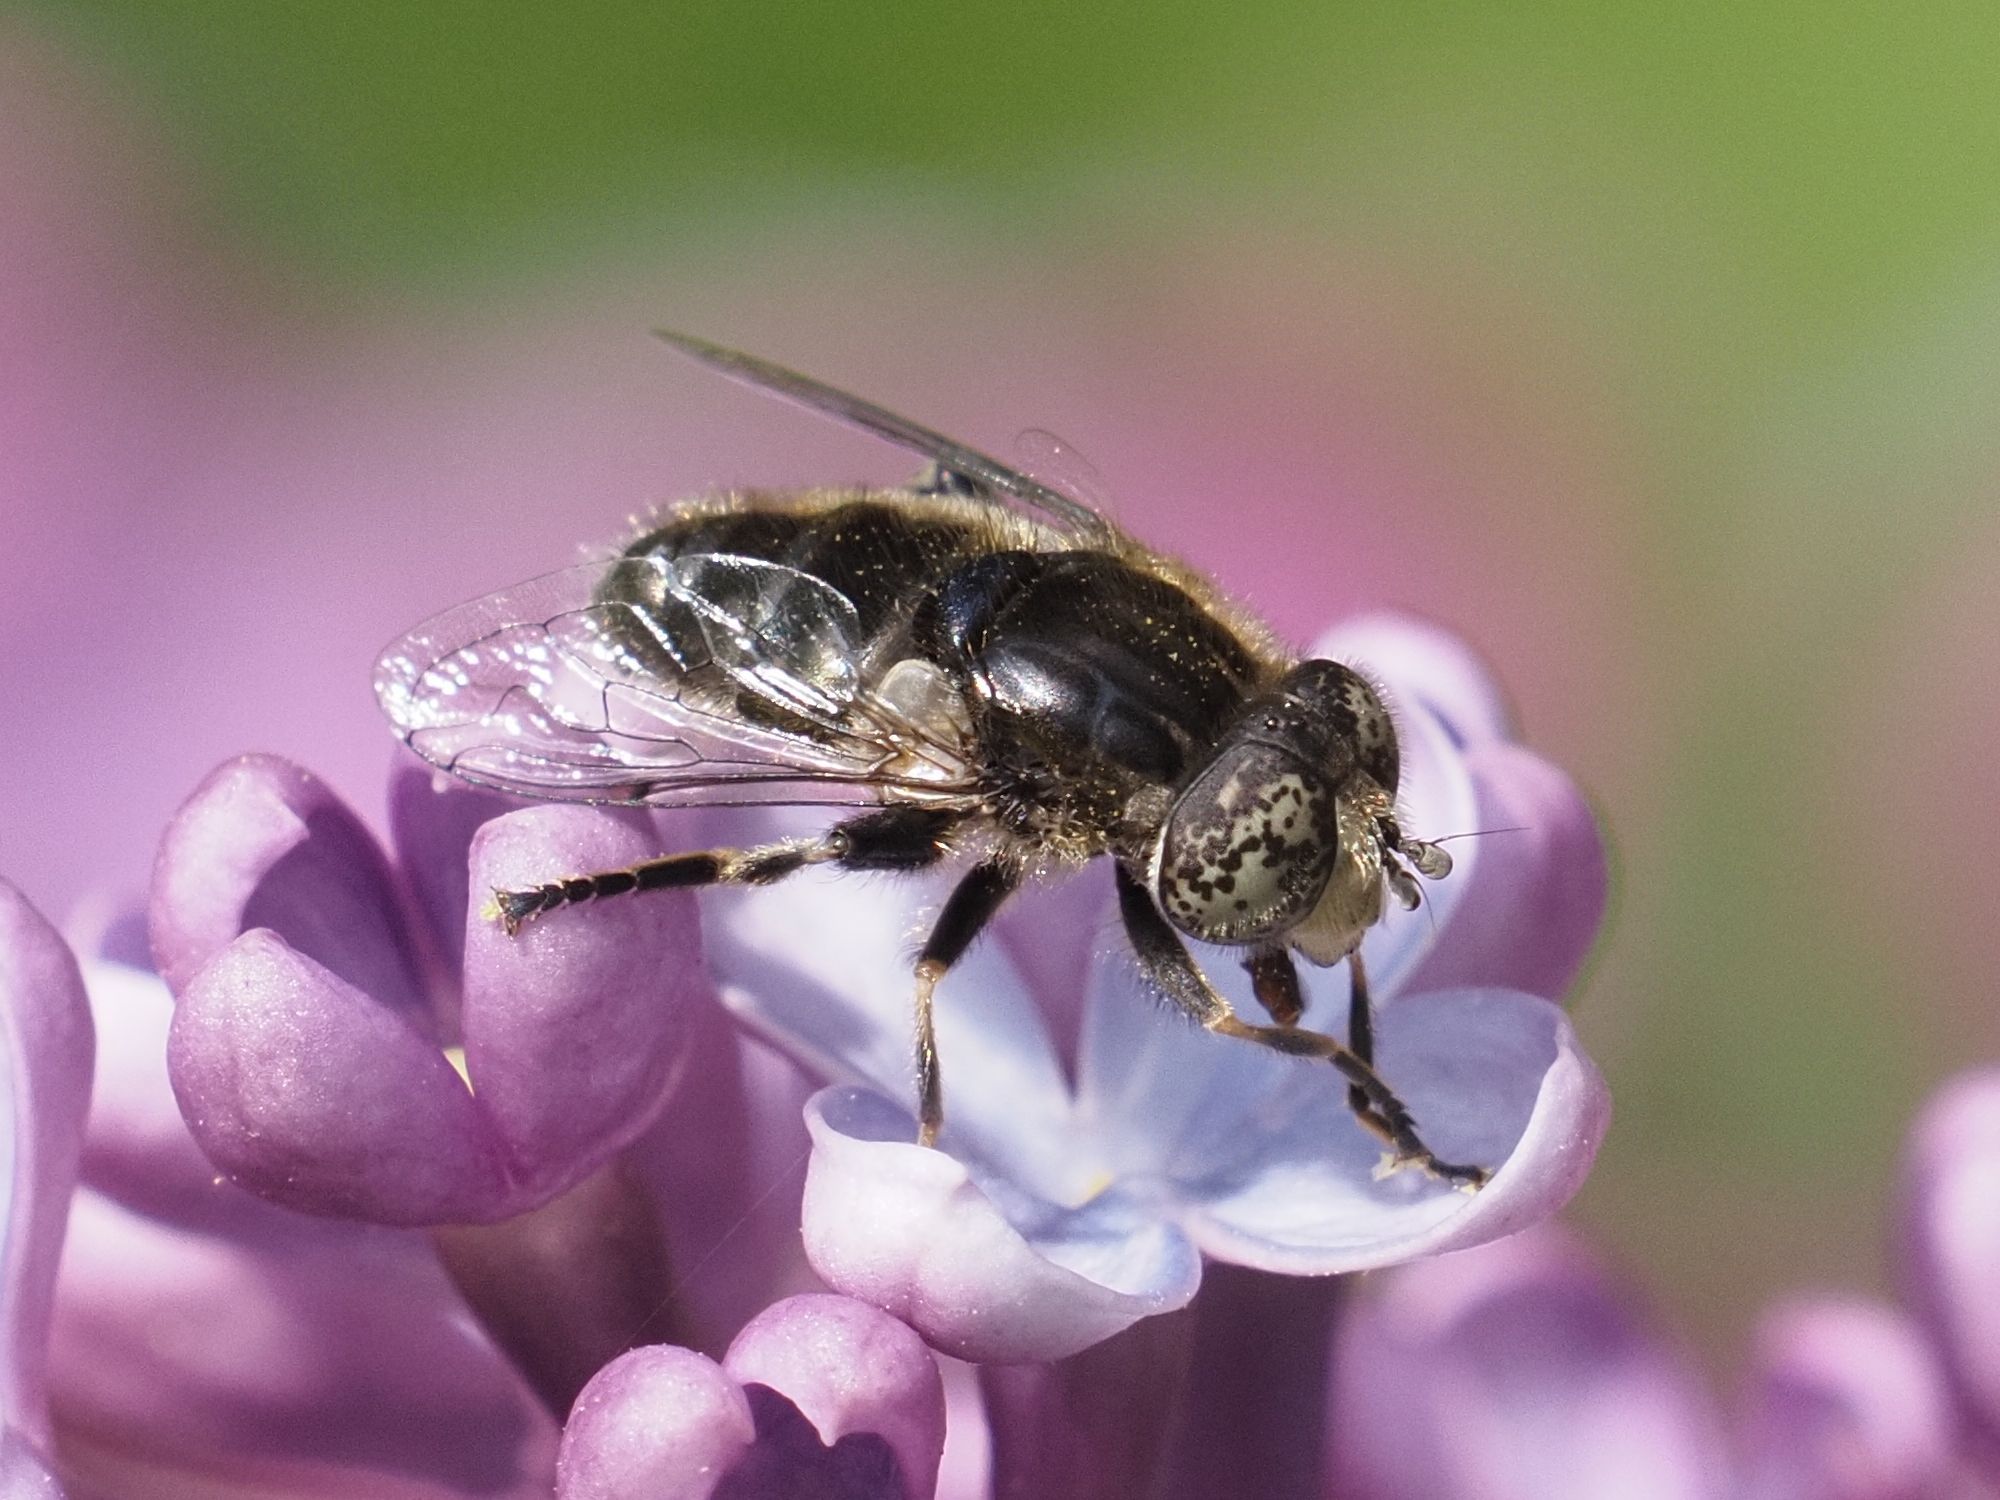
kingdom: Animalia
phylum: Arthropoda
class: Insecta
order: Diptera
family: Syrphidae
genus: Eristalinus
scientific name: Eristalinus sepulchralis
